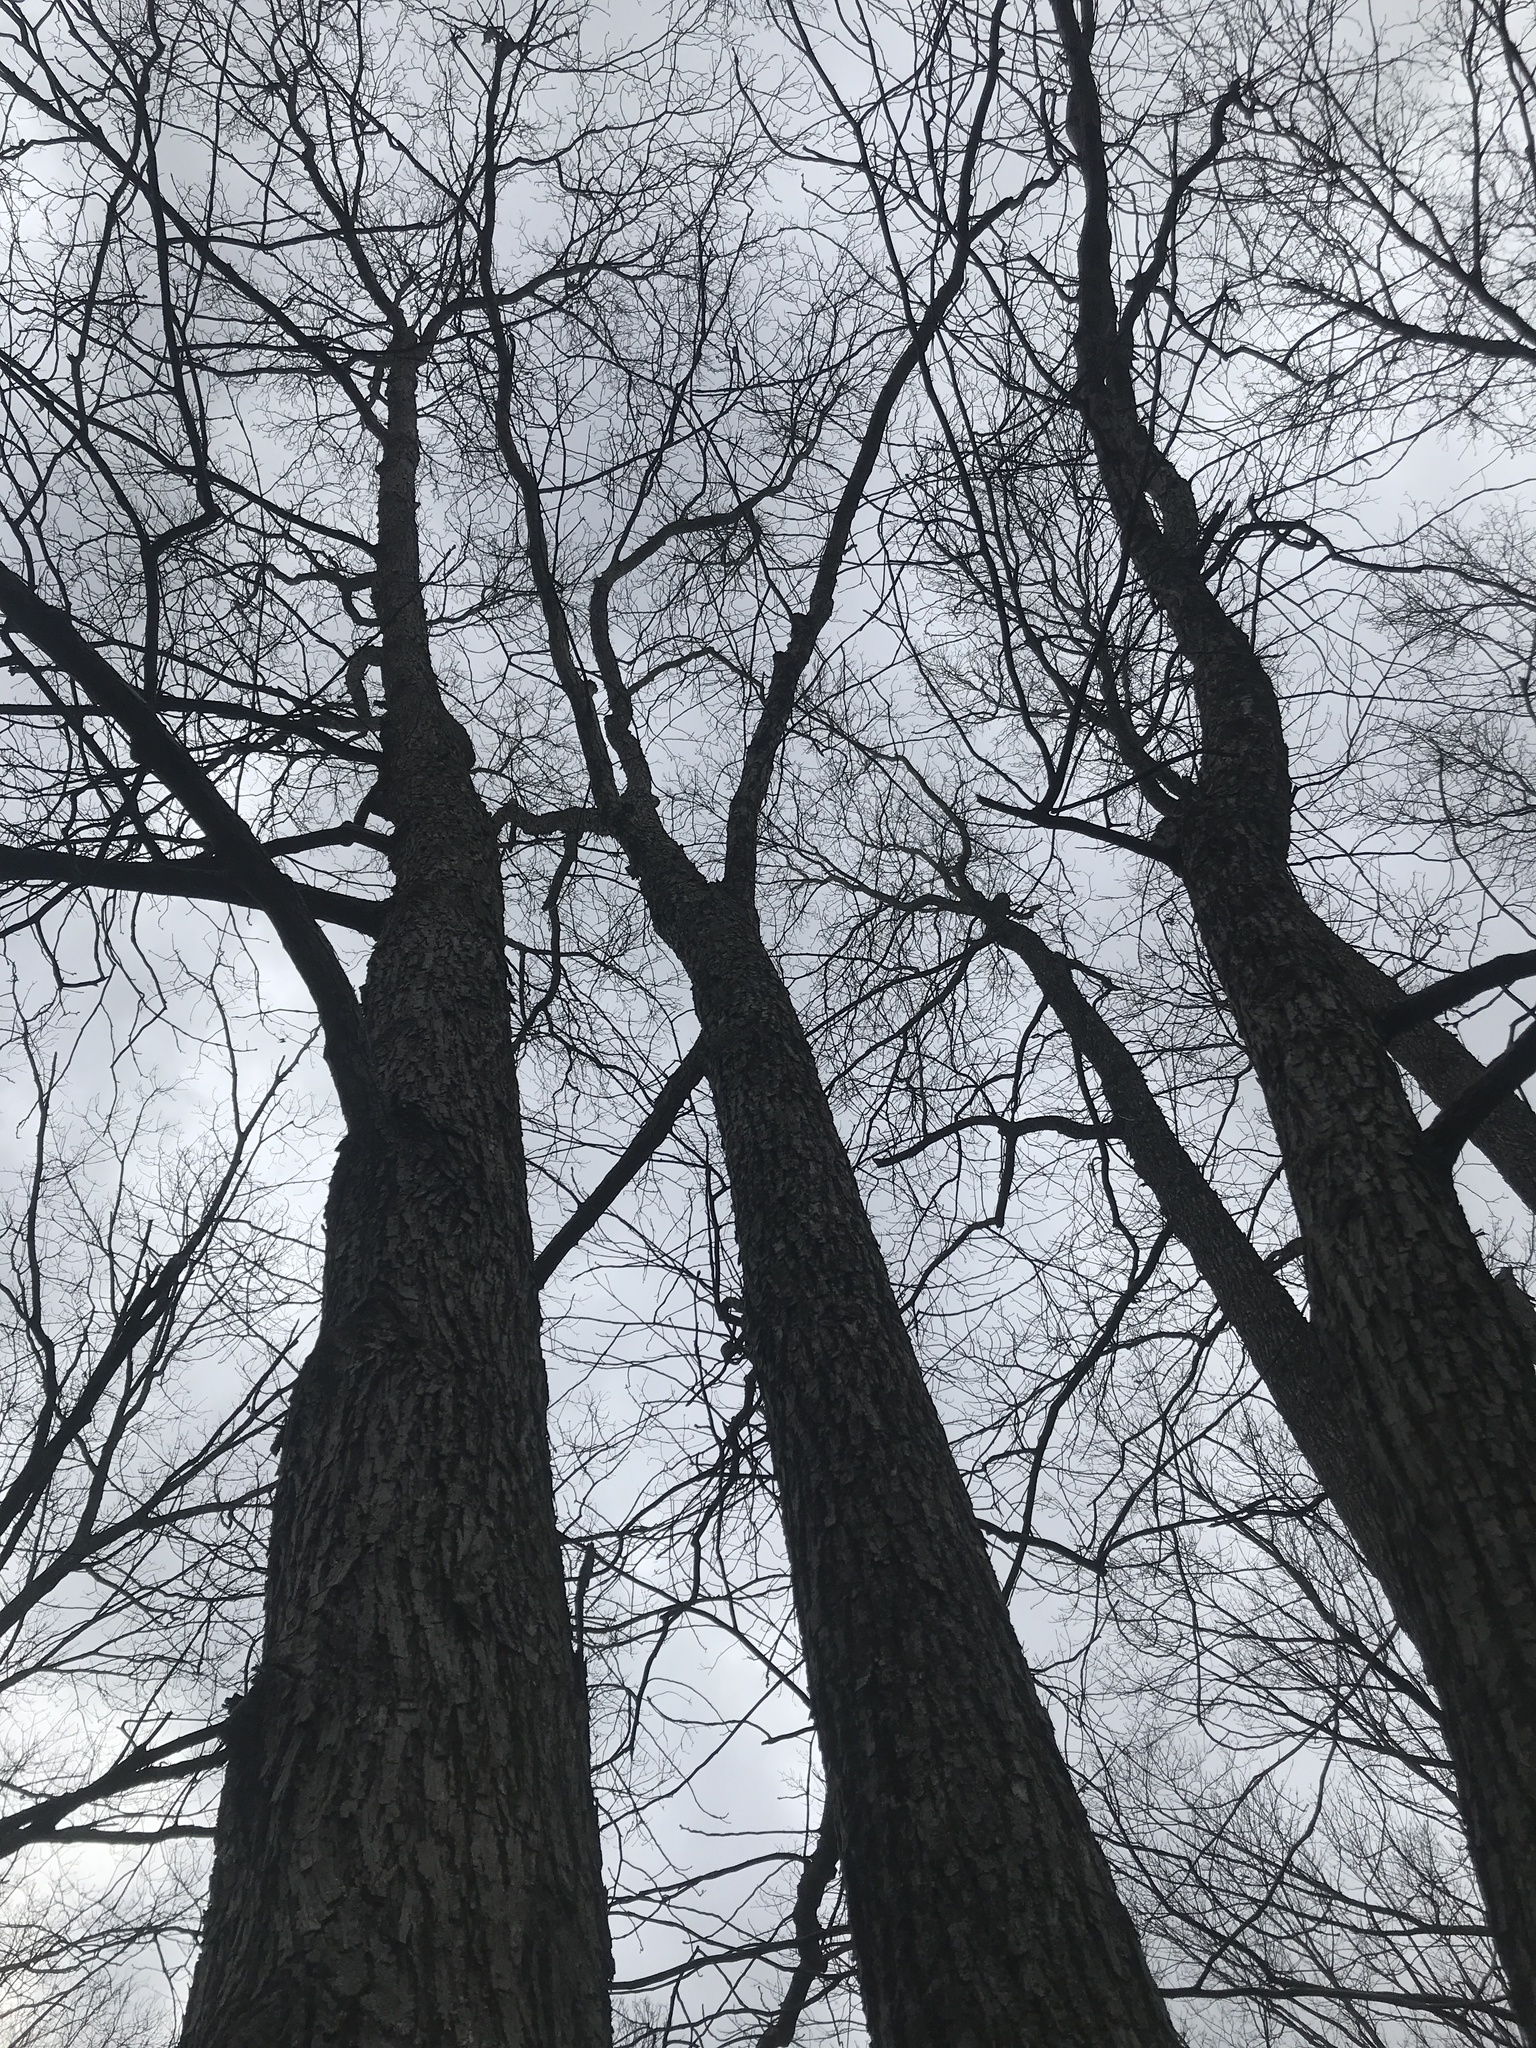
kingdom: Plantae
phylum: Tracheophyta
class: Magnoliopsida
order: Fagales
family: Juglandaceae
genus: Carya
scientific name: Carya cordiformis
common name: Bitternut hickory
